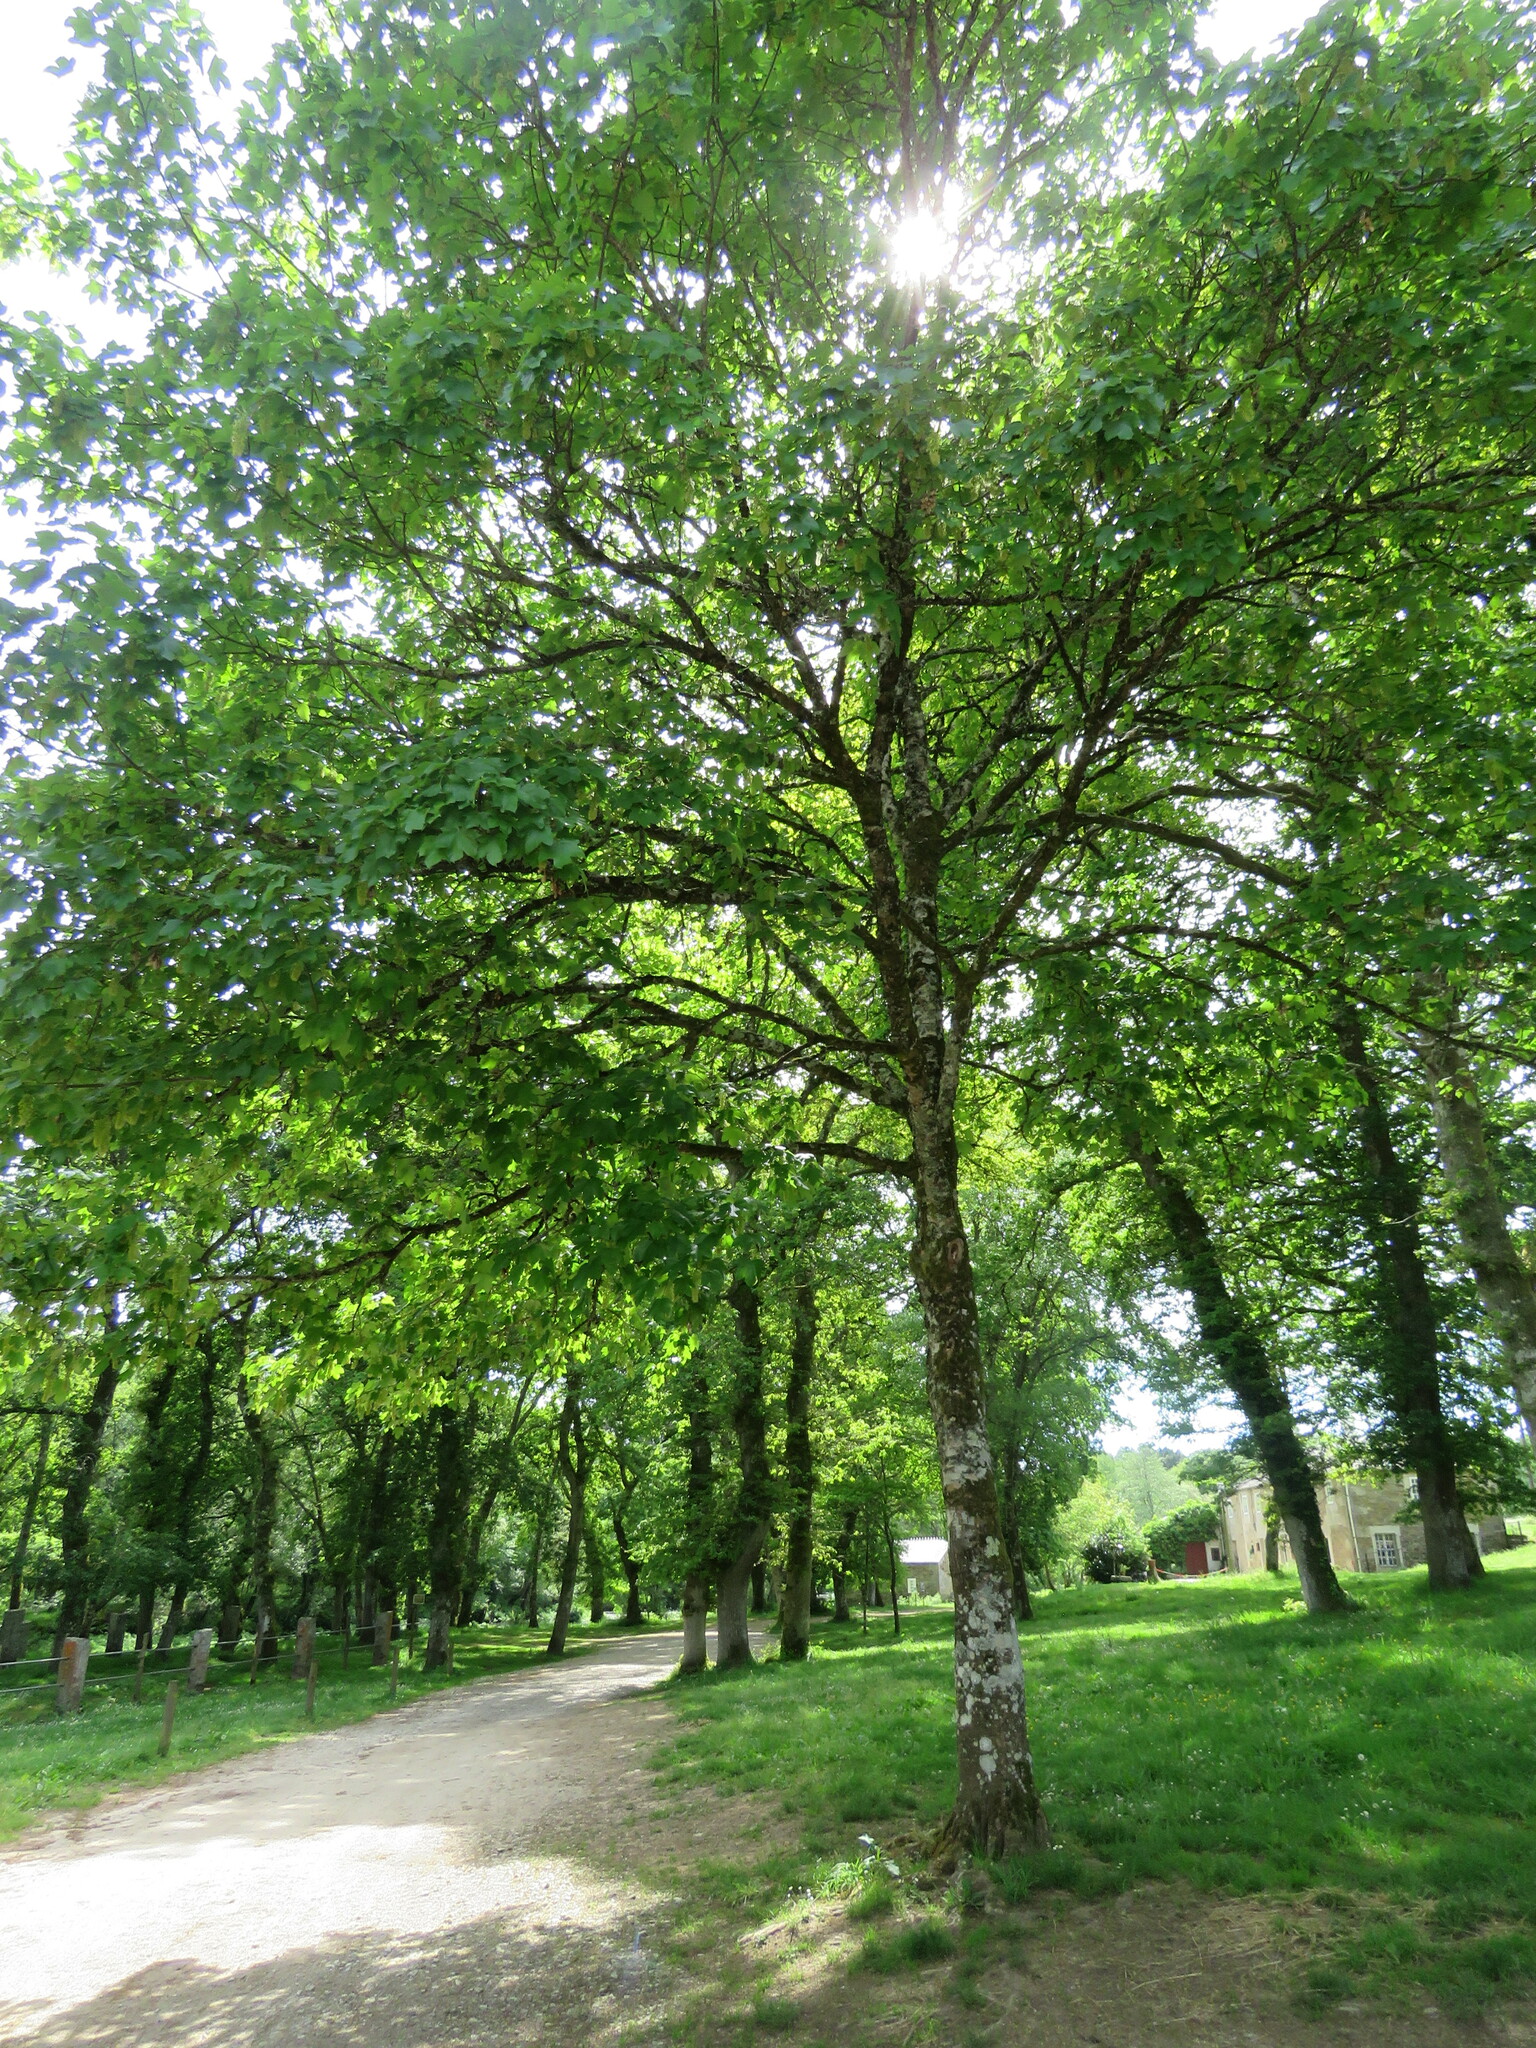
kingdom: Plantae
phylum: Tracheophyta
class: Magnoliopsida
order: Sapindales
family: Sapindaceae
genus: Acer
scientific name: Acer pseudoplatanus
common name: Sycamore
